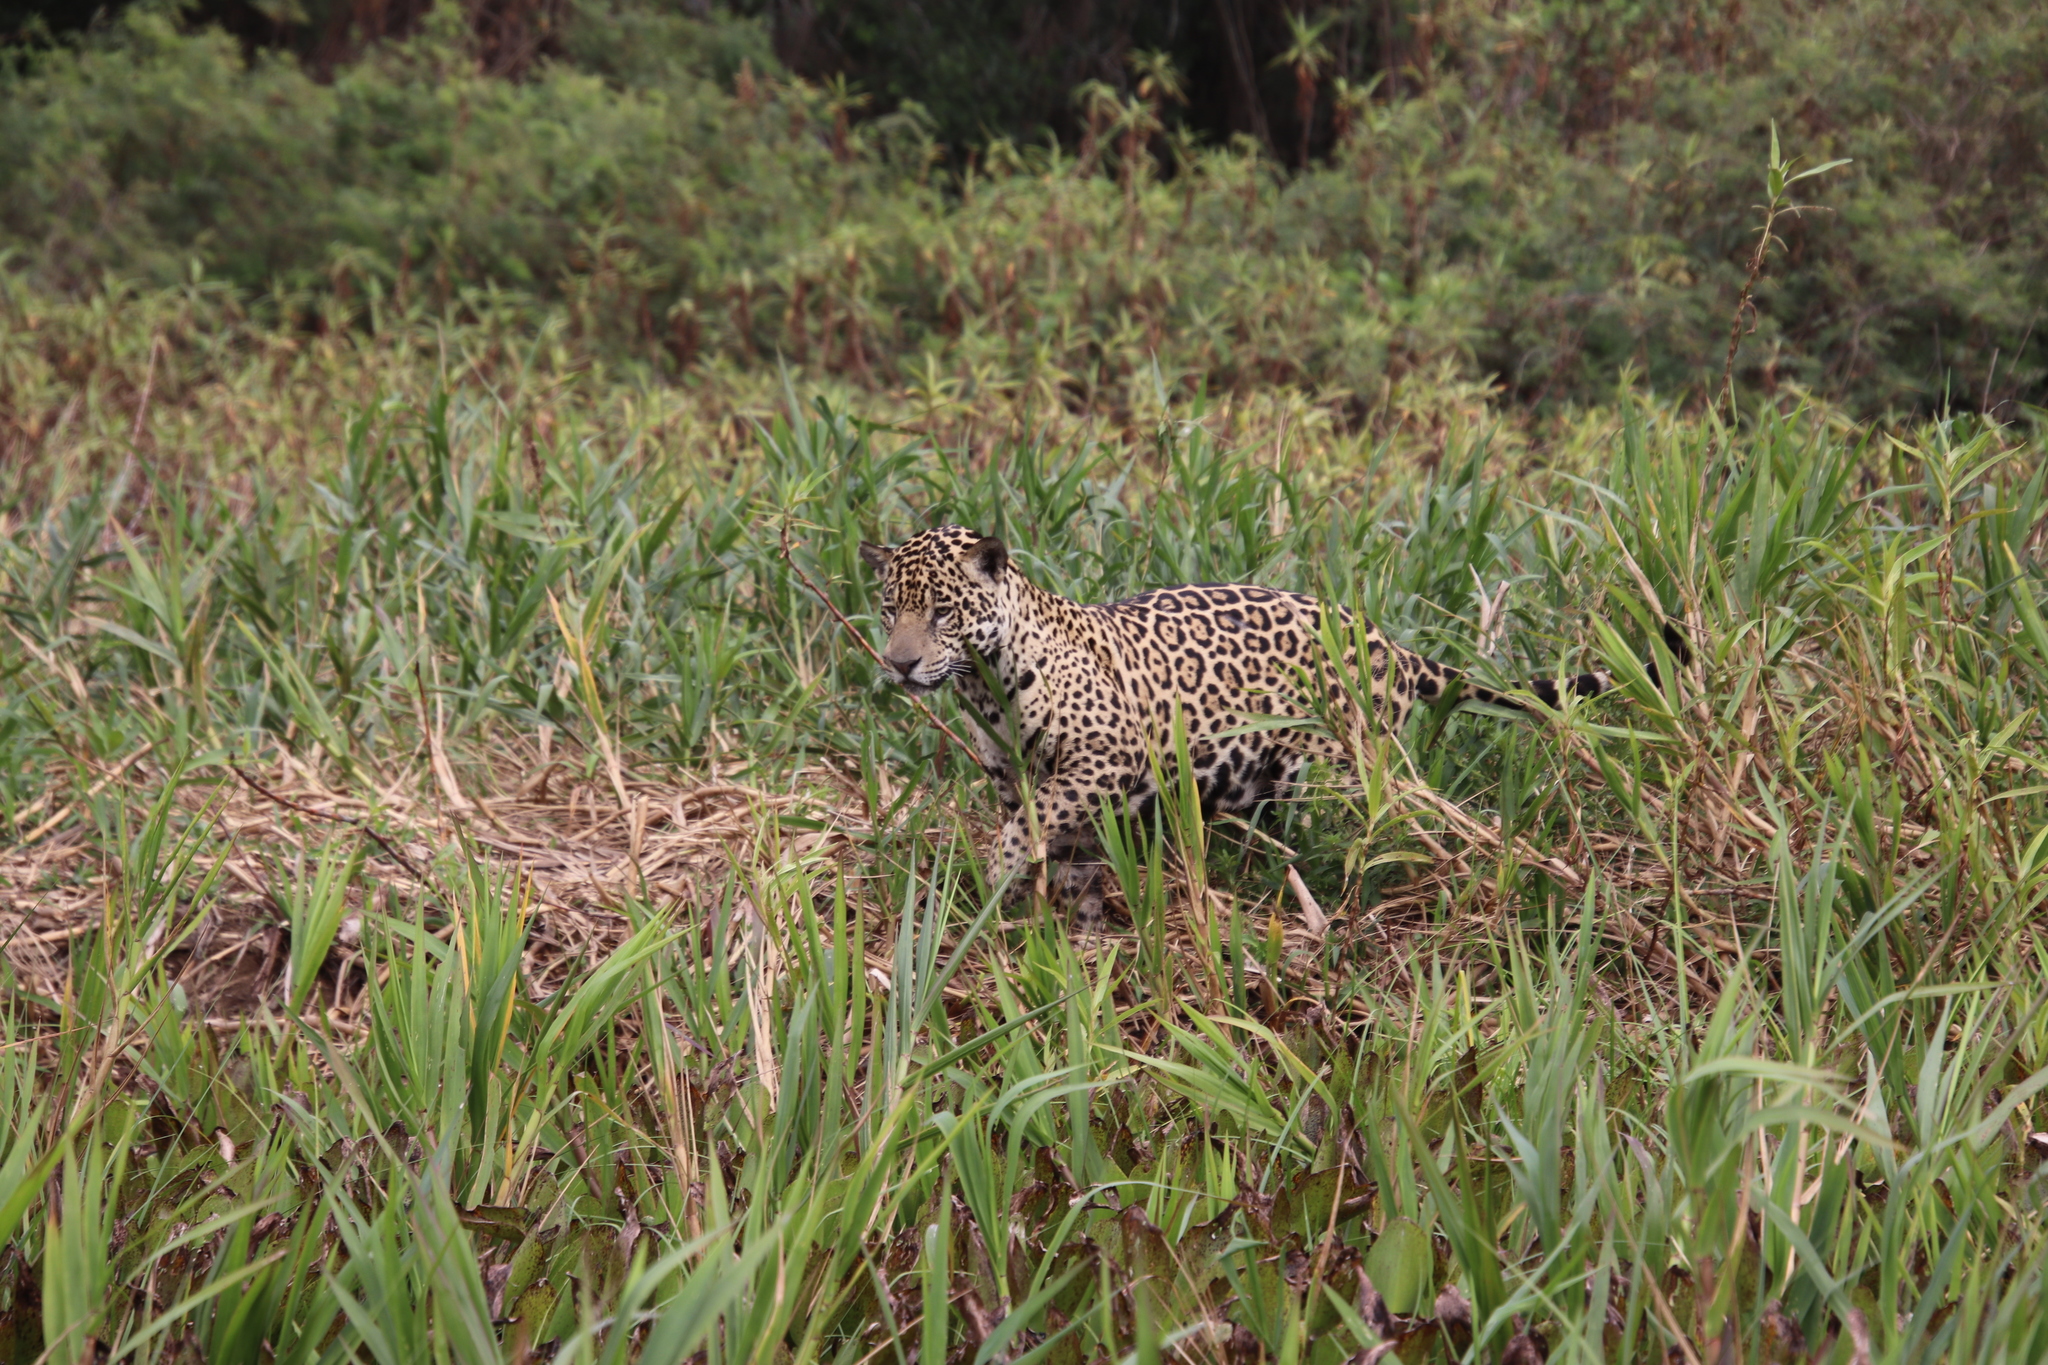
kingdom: Animalia
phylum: Chordata
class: Mammalia
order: Carnivora
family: Felidae
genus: Panthera
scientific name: Panthera onca
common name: Jaguar
